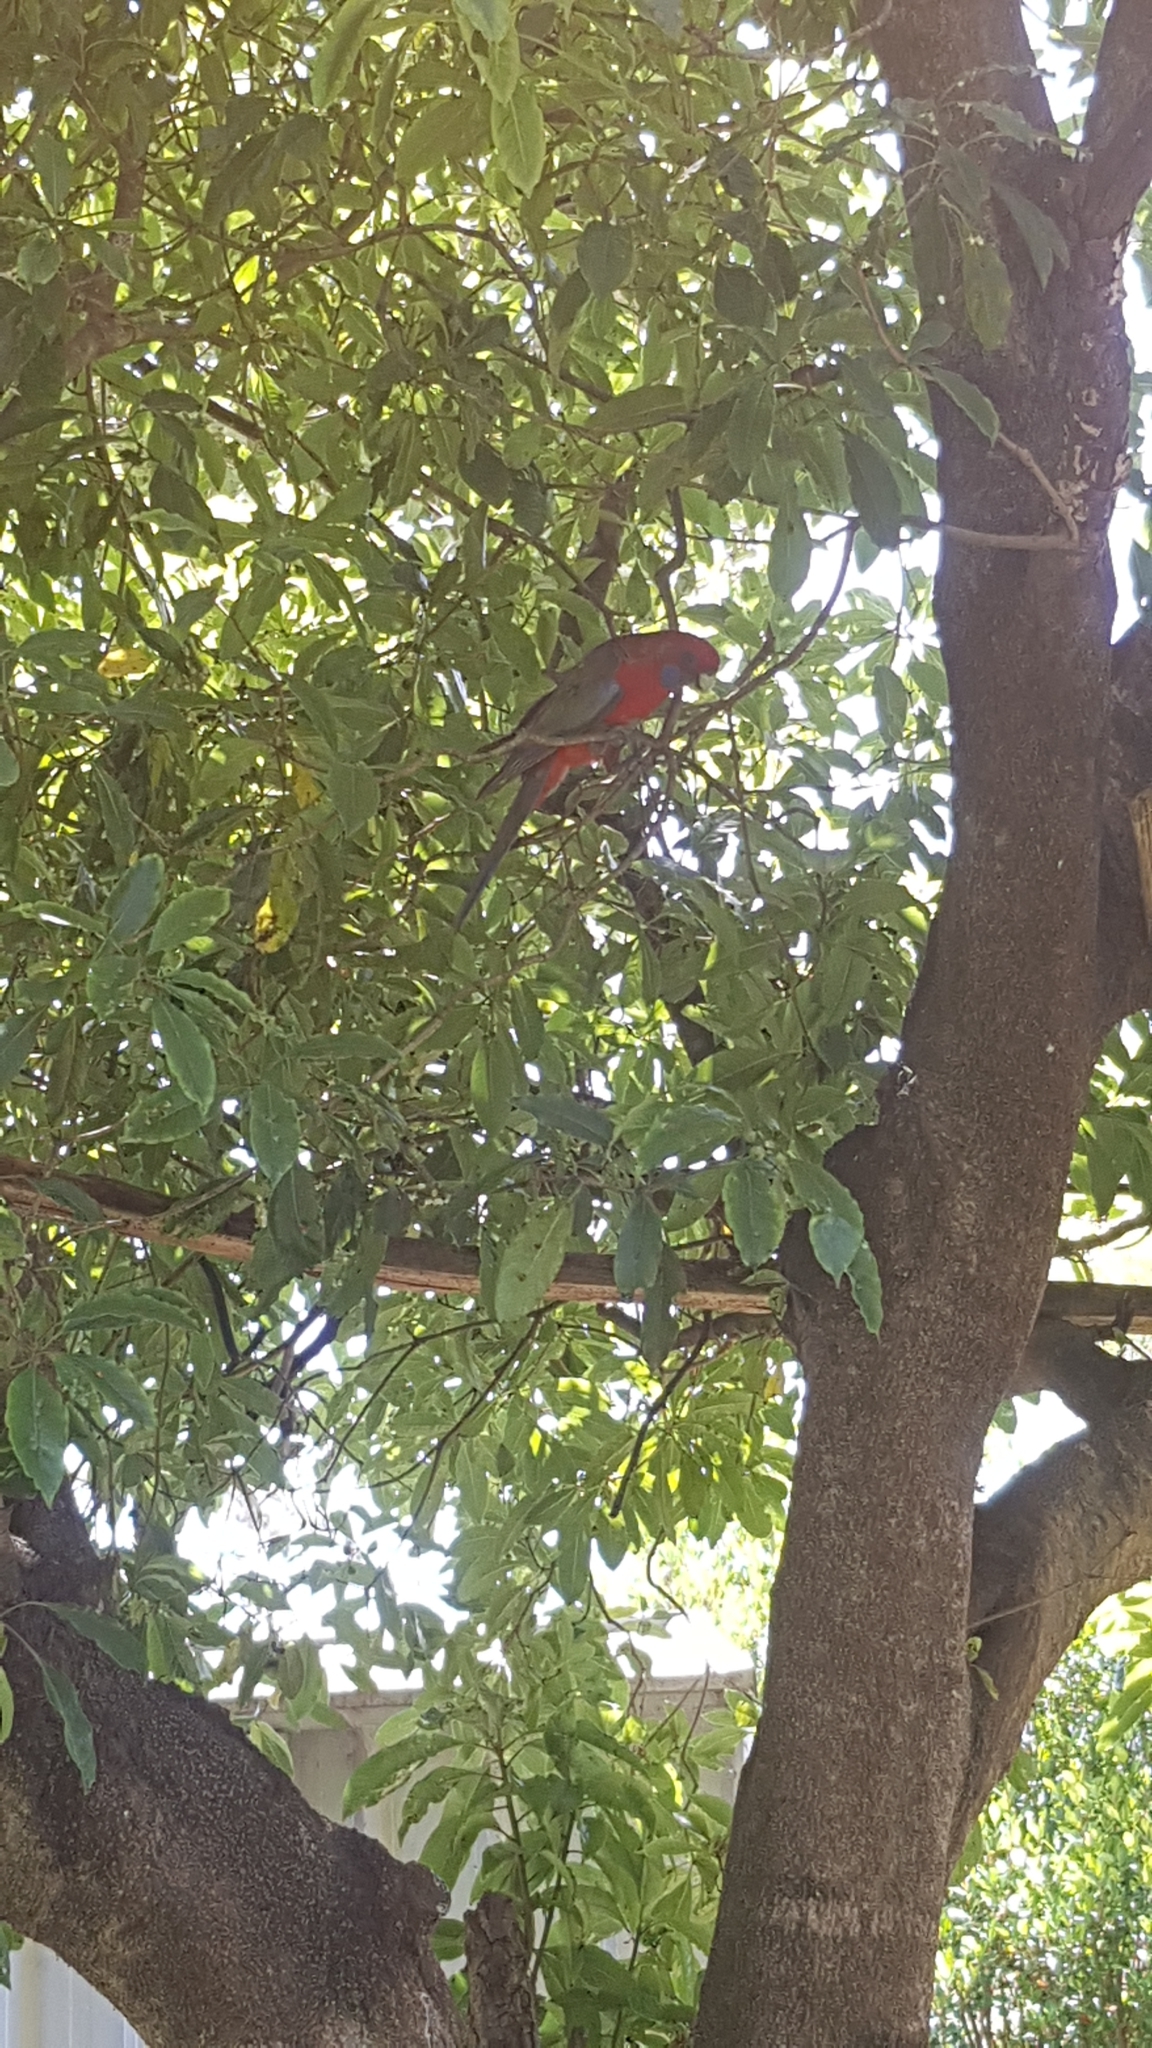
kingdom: Animalia
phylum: Chordata
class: Aves
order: Psittaciformes
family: Psittacidae
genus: Platycercus
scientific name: Platycercus elegans
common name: Crimson rosella
